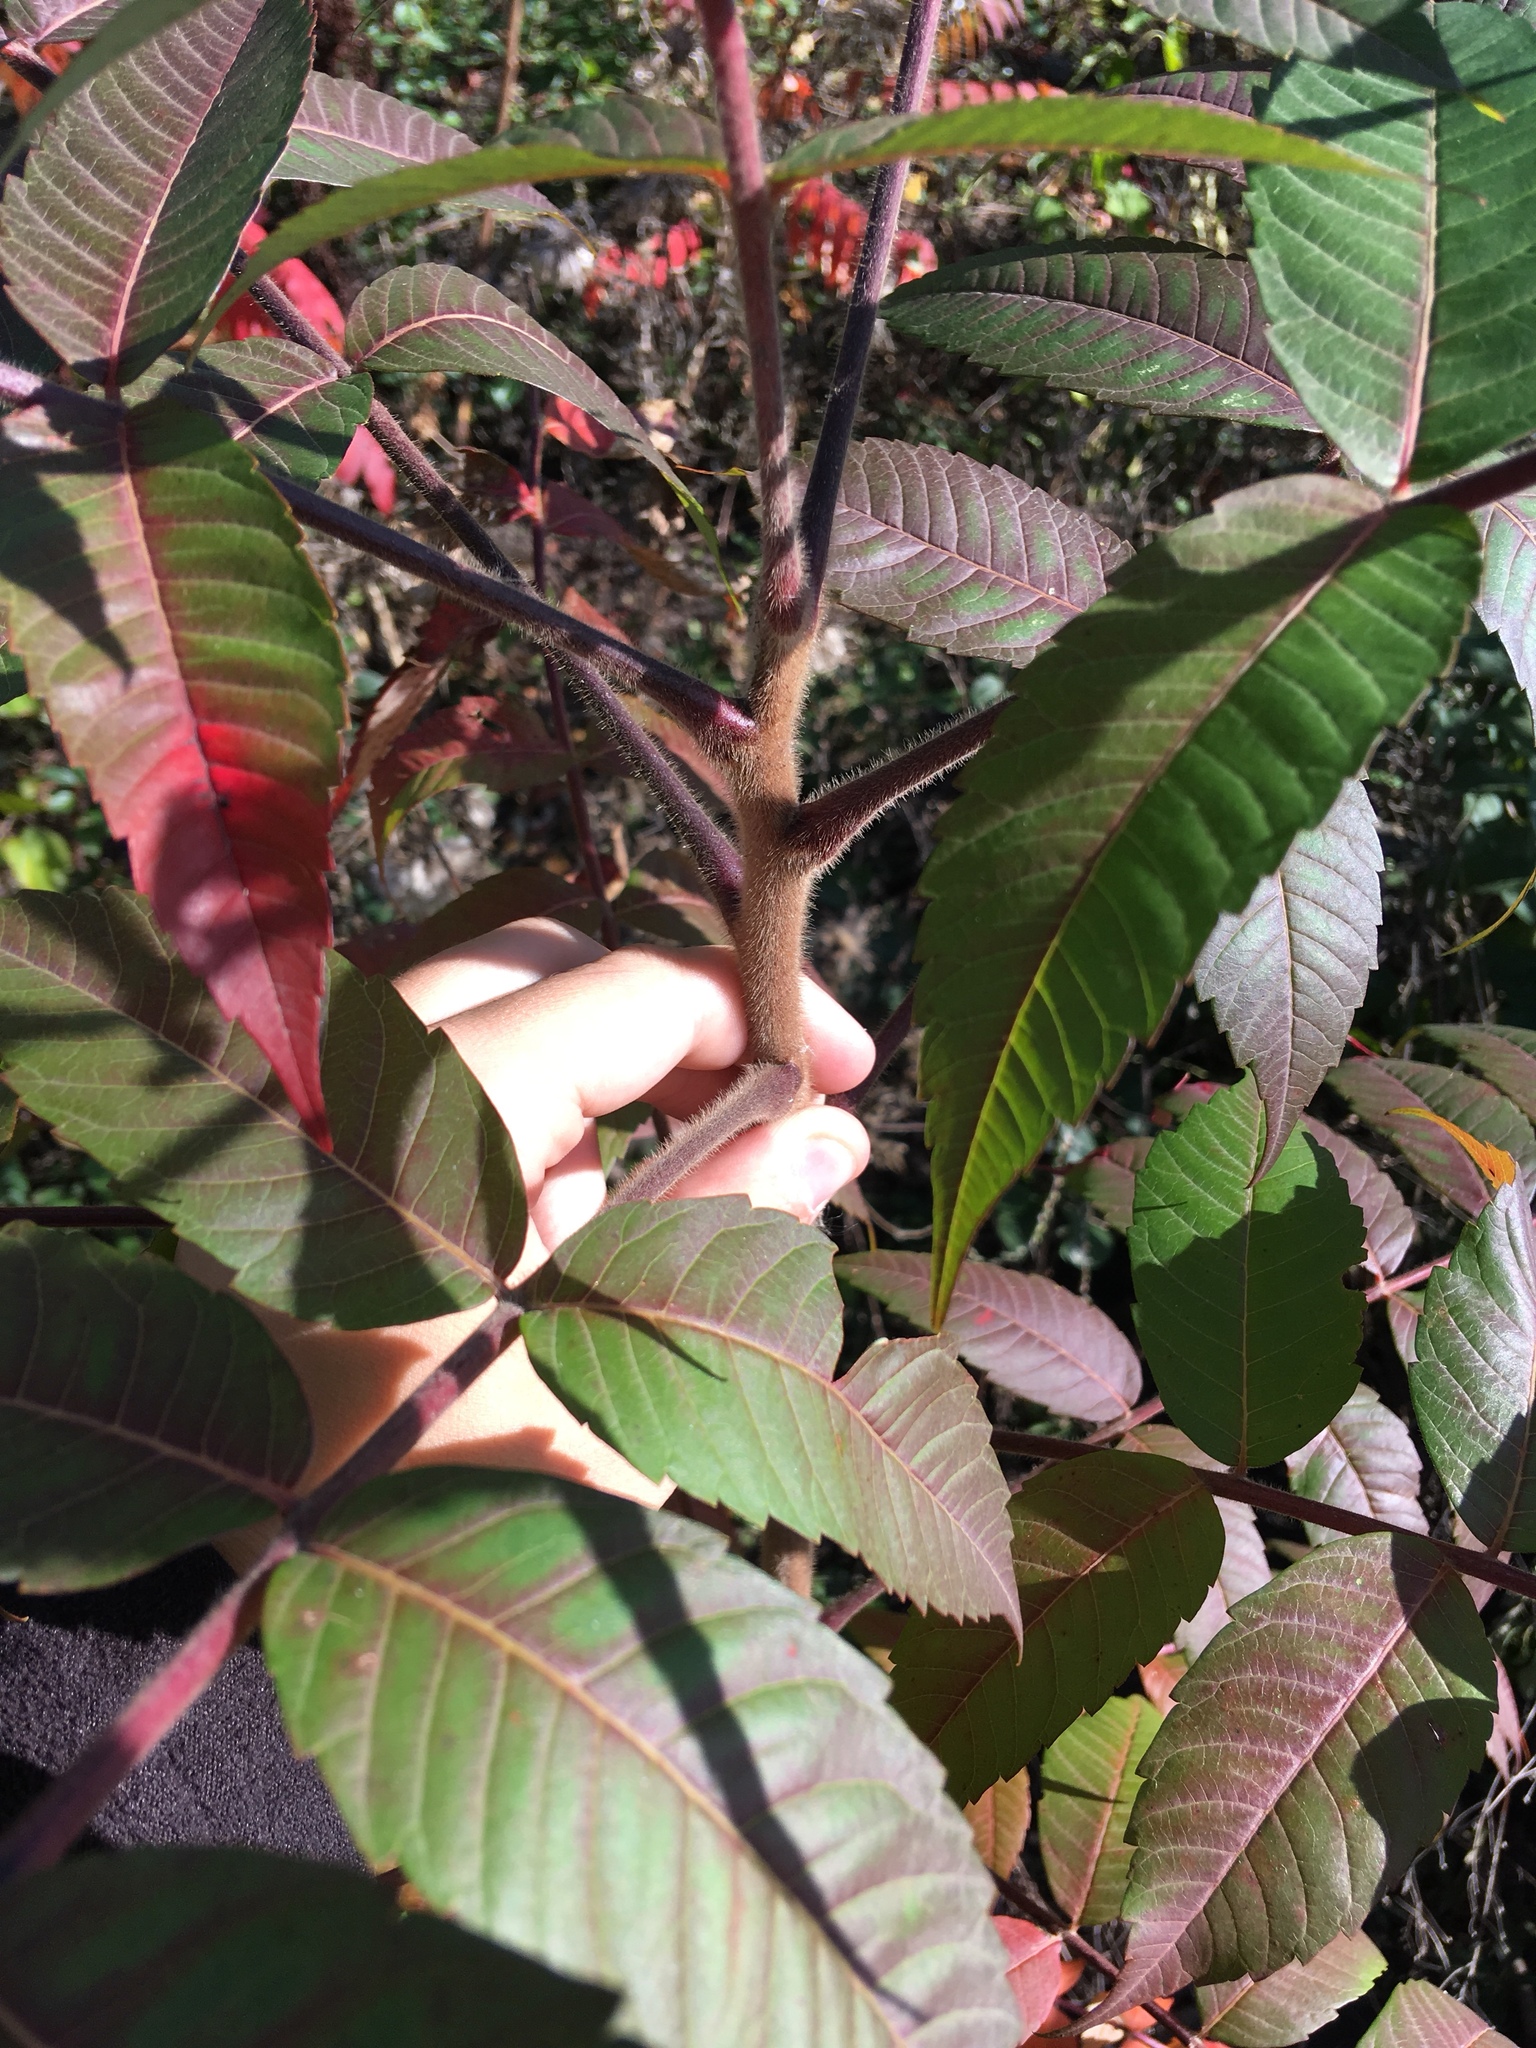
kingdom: Plantae
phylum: Tracheophyta
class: Magnoliopsida
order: Sapindales
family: Anacardiaceae
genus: Rhus
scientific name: Rhus typhina
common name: Staghorn sumac
